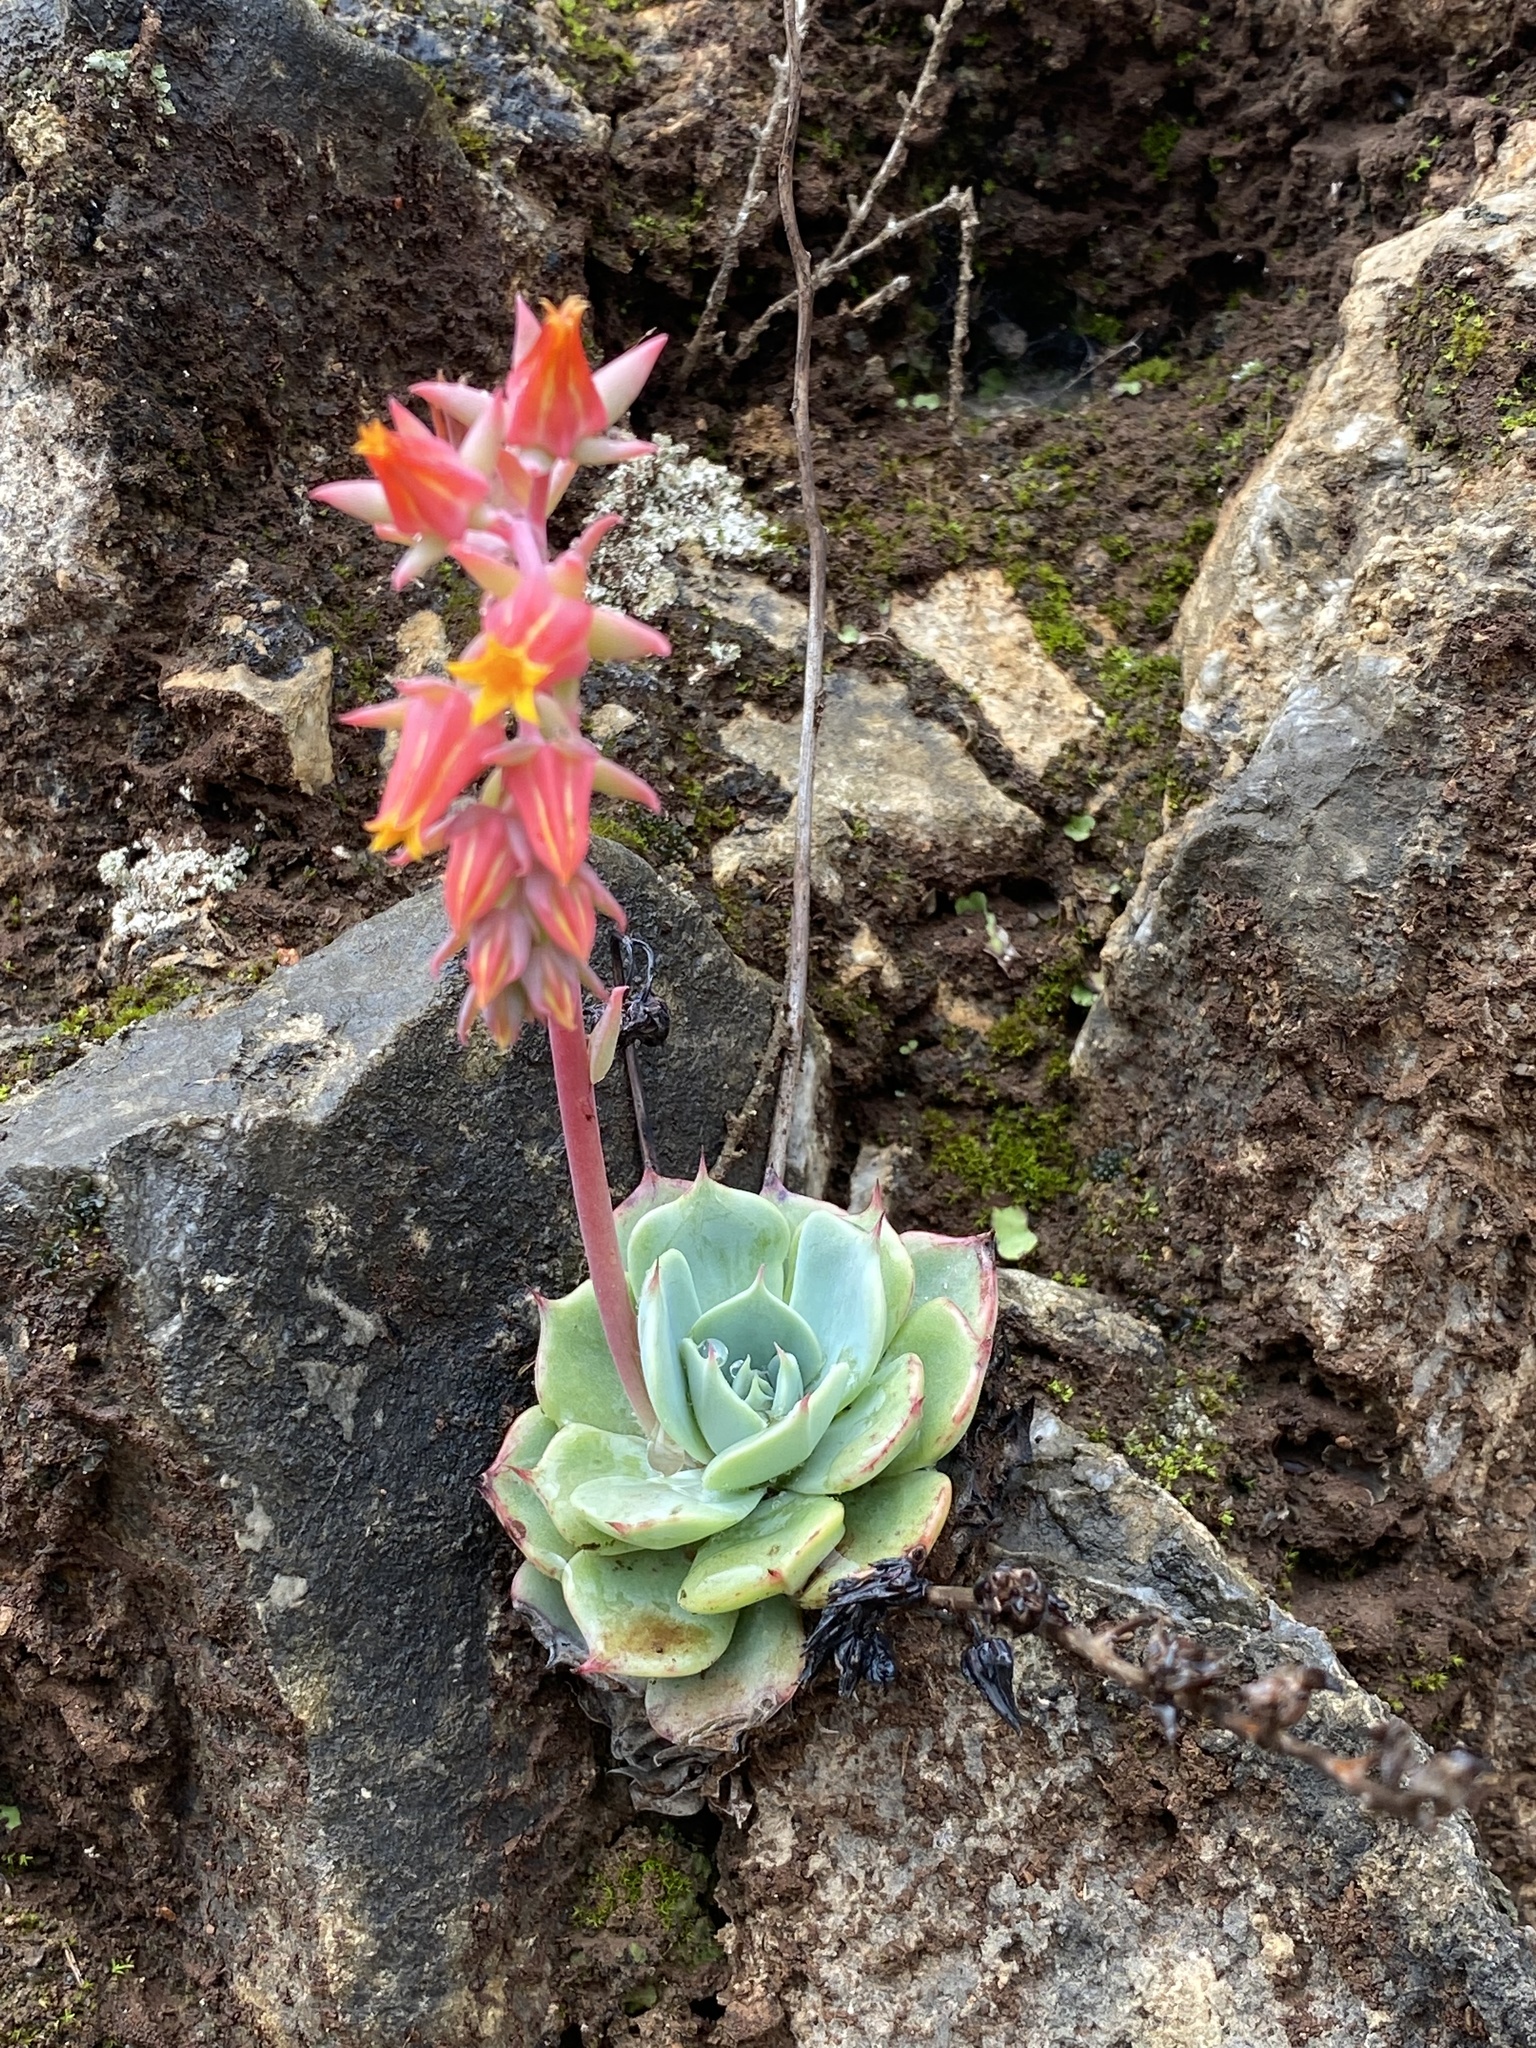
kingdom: Plantae
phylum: Tracheophyta
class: Magnoliopsida
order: Saxifragales
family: Crassulaceae
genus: Echeveria
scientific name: Echeveria secunda
